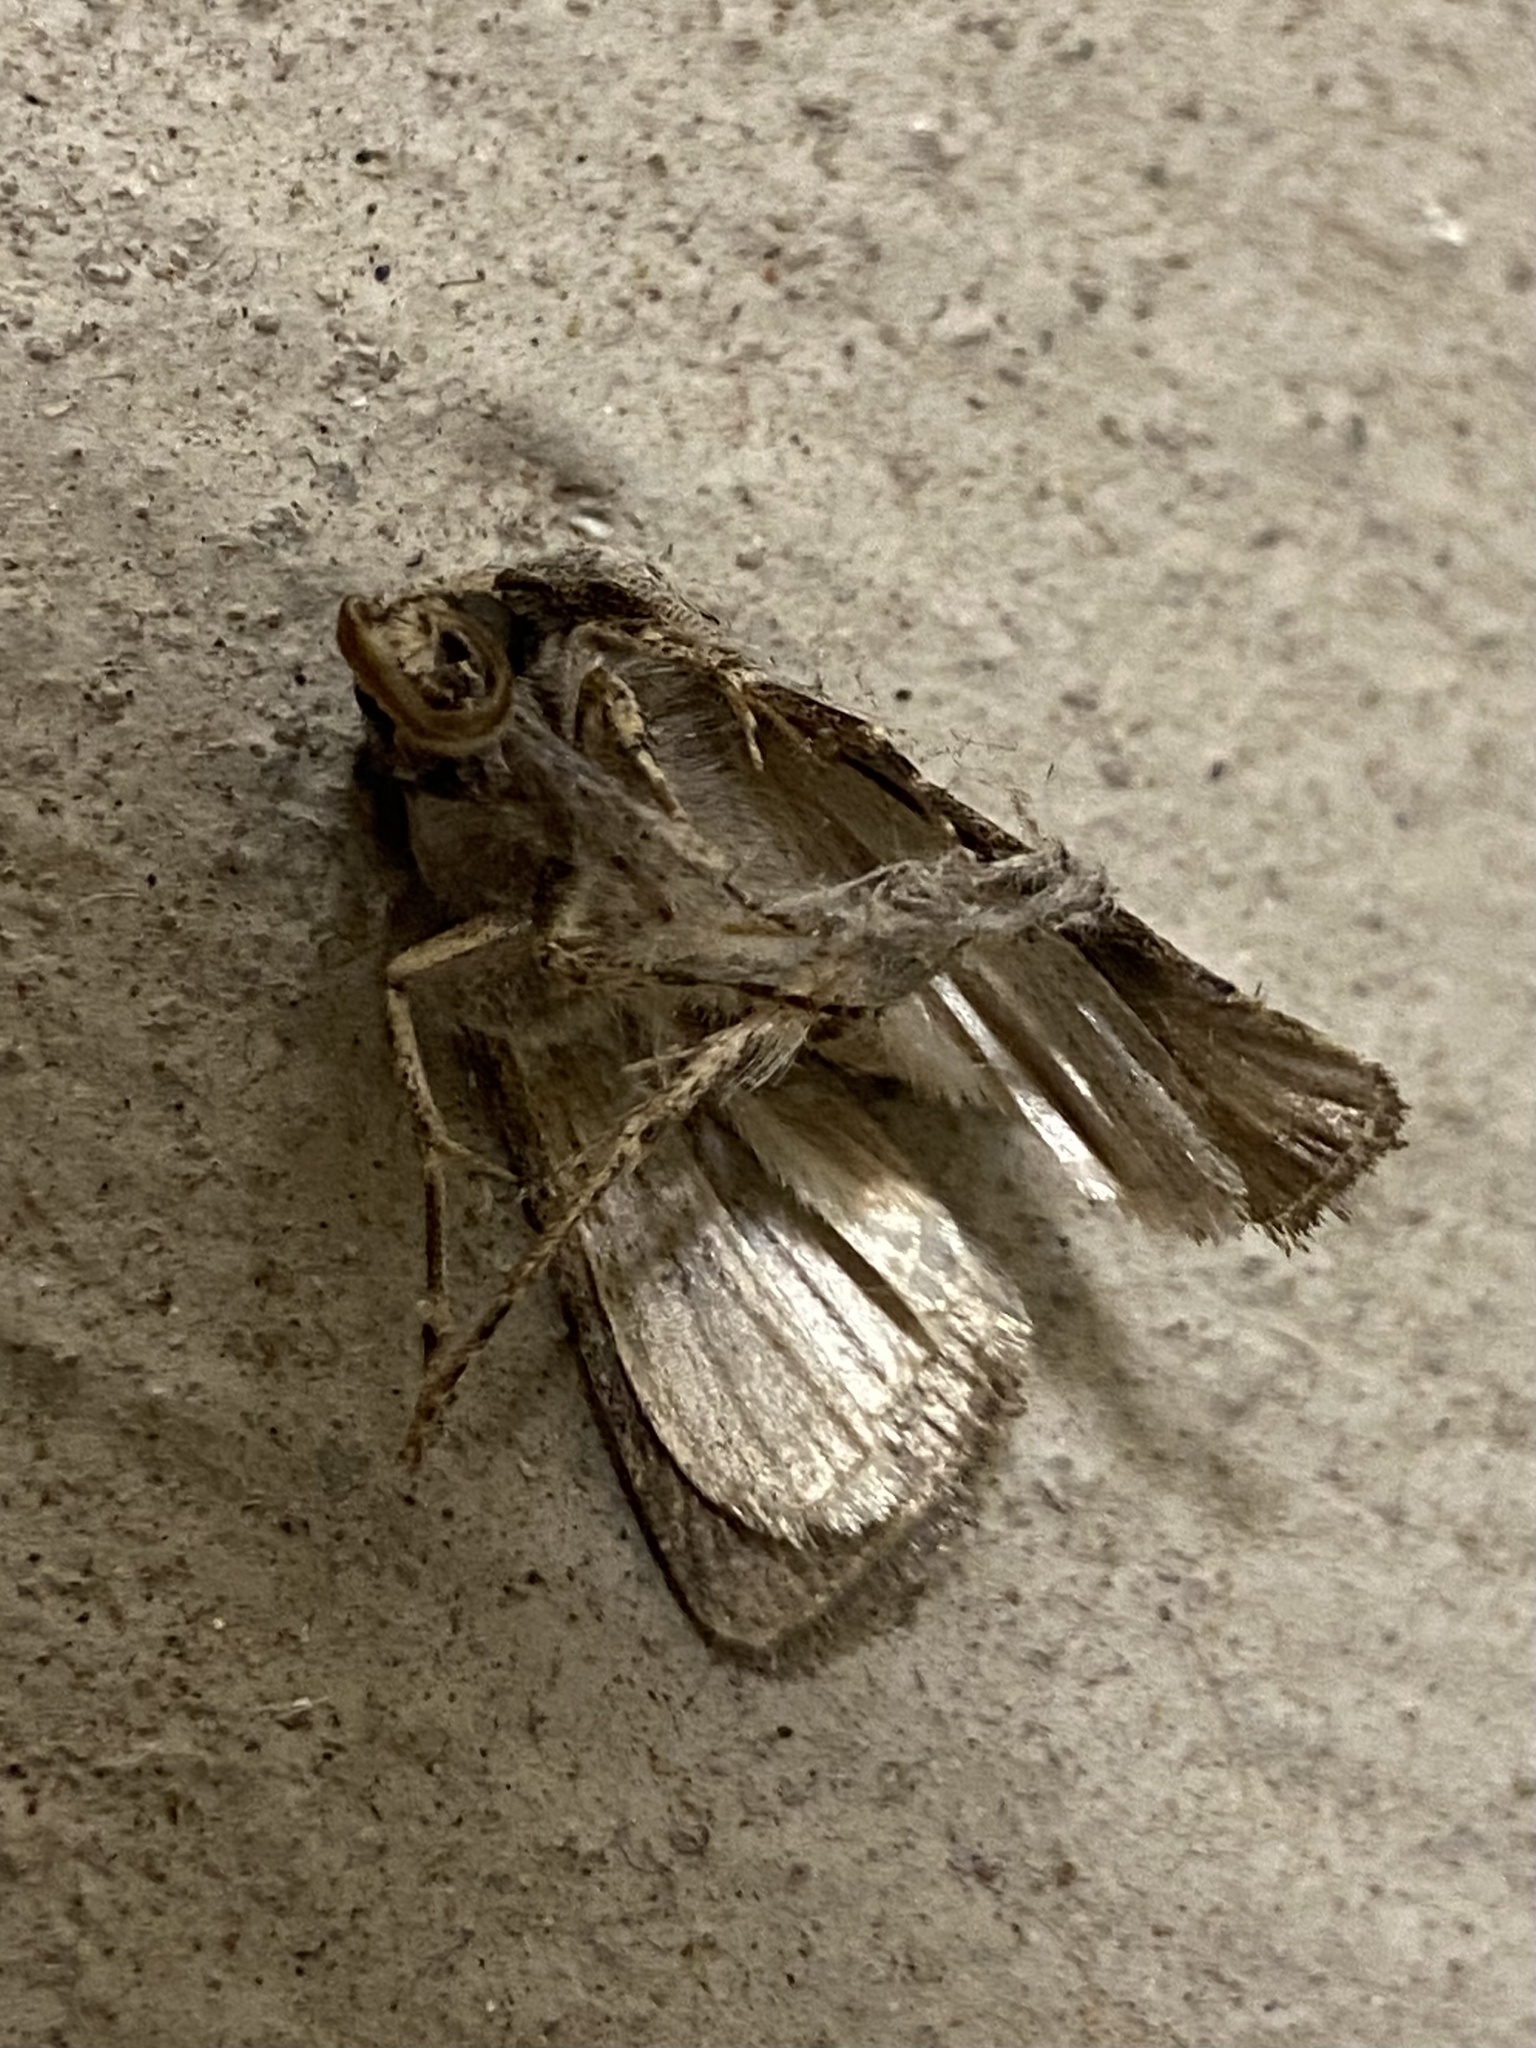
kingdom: Animalia
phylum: Arthropoda
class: Insecta
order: Lepidoptera
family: Noctuidae
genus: Agrotis
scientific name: Agrotis venerabilis
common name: Venerable dart
